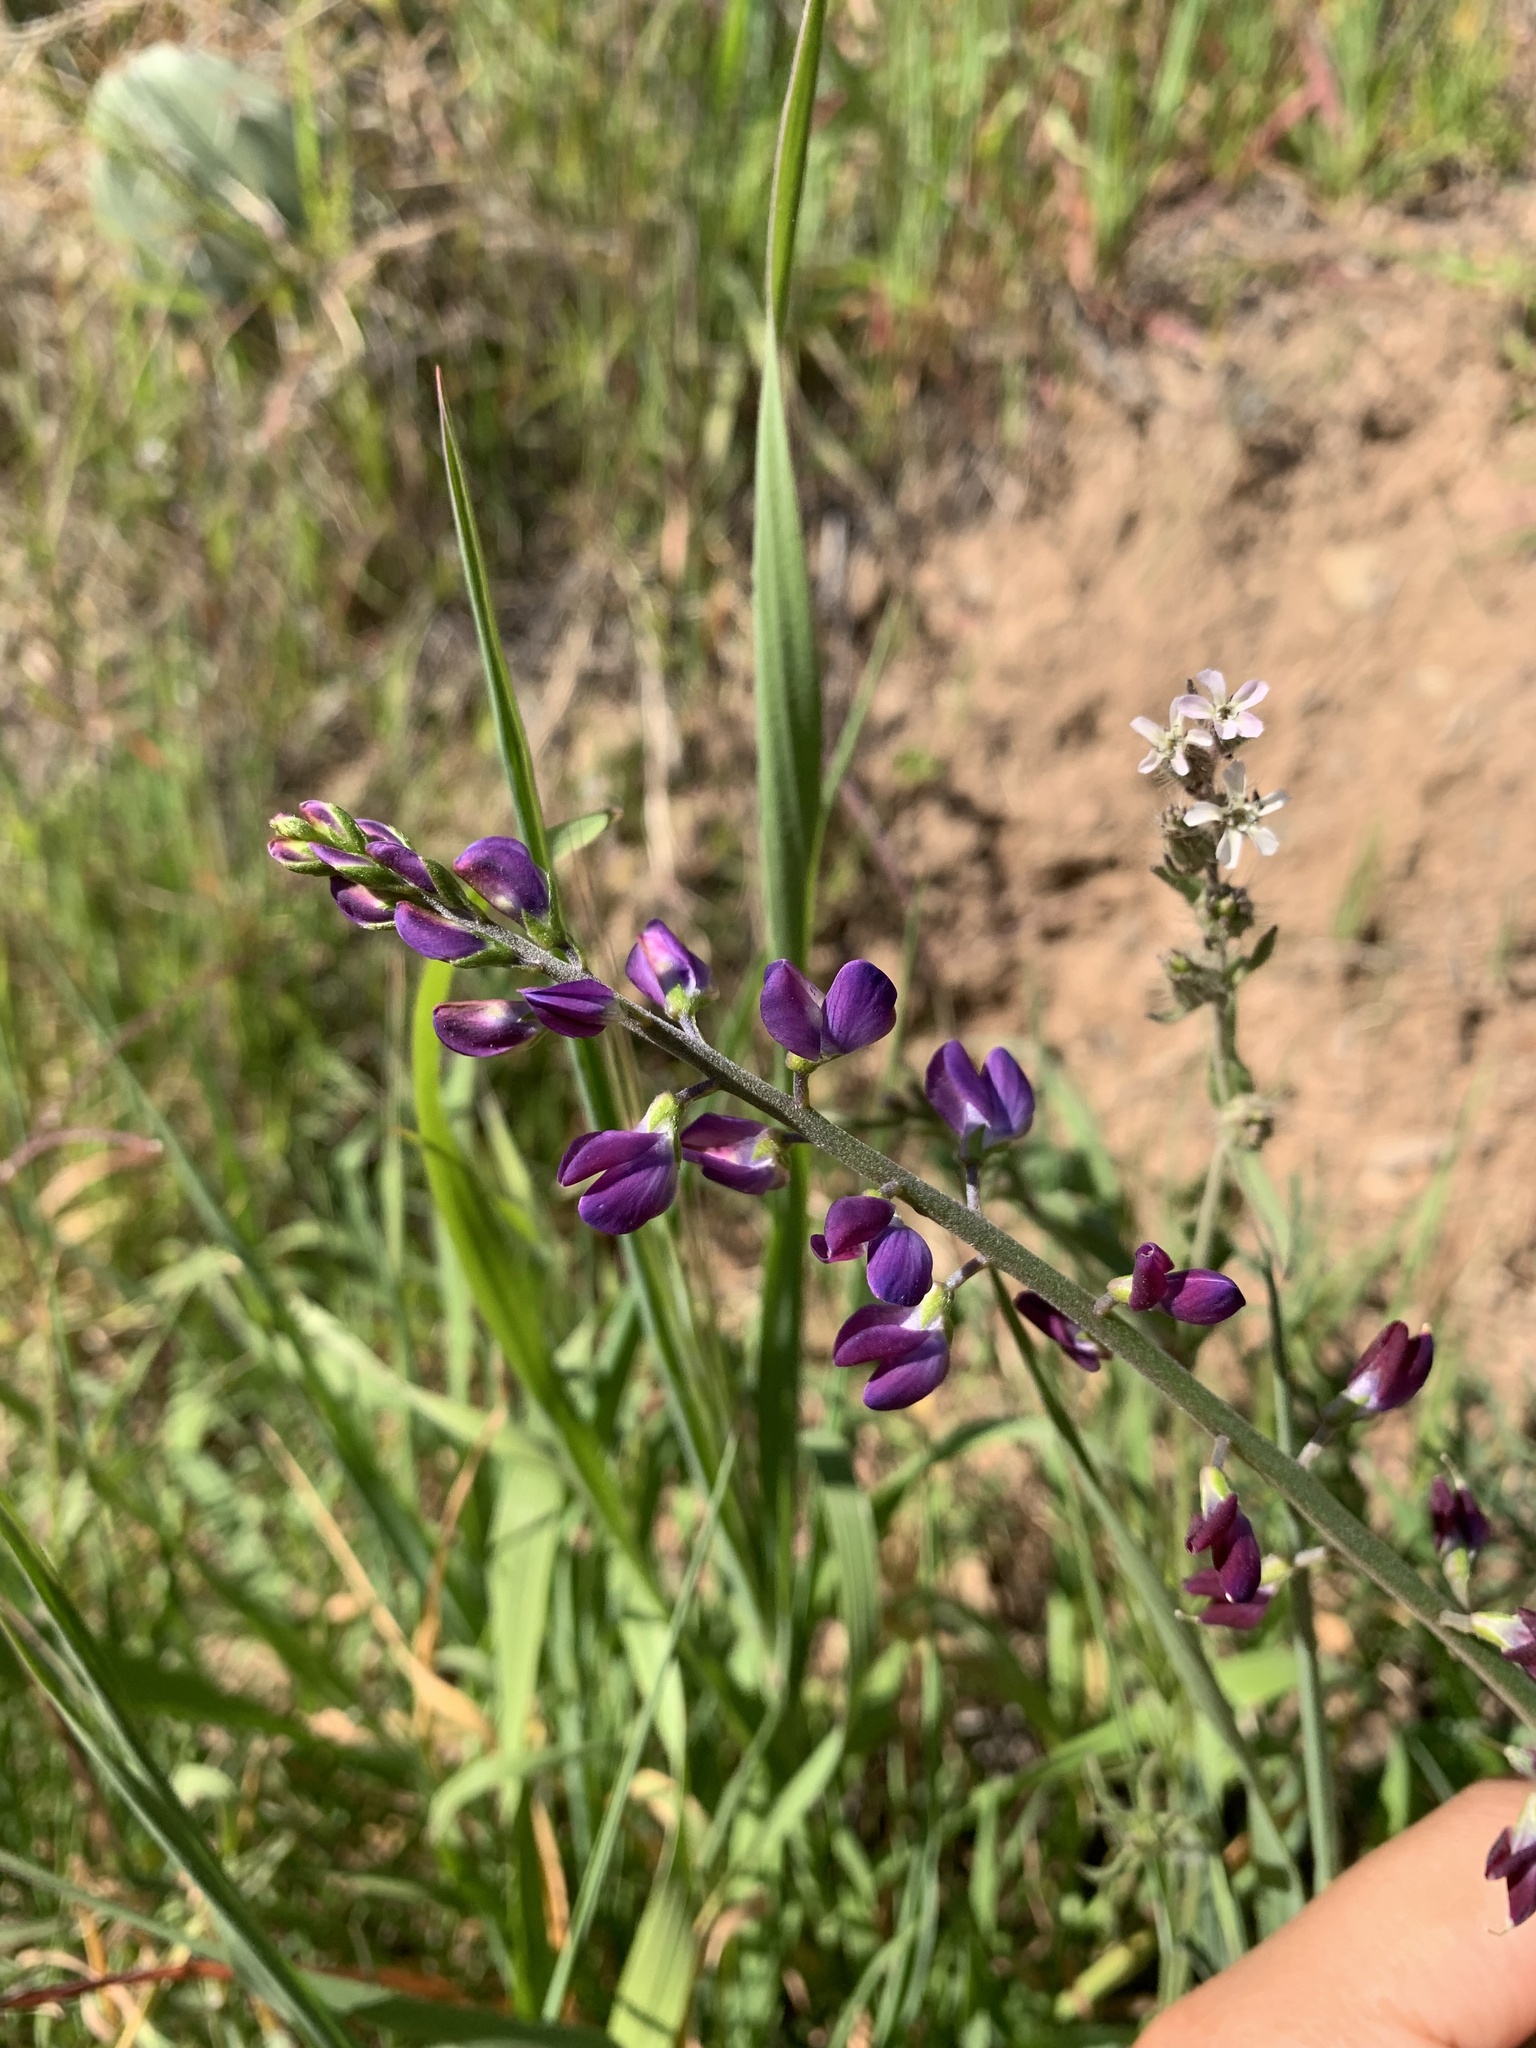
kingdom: Plantae
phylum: Tracheophyta
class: Magnoliopsida
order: Fabales
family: Fabaceae
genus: Lupinus
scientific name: Lupinus truncatus
